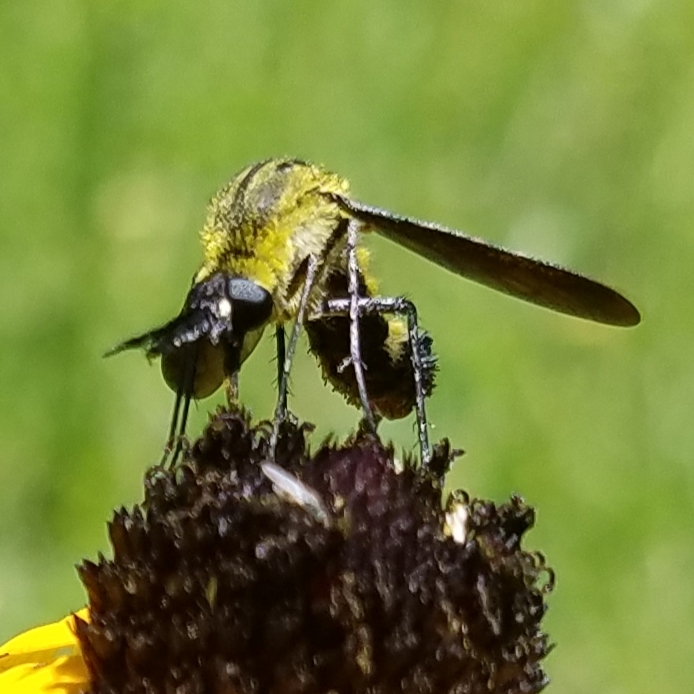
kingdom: Animalia
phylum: Arthropoda
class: Insecta
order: Diptera
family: Bombyliidae
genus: Lepidophora
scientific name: Lepidophora lepidocera
